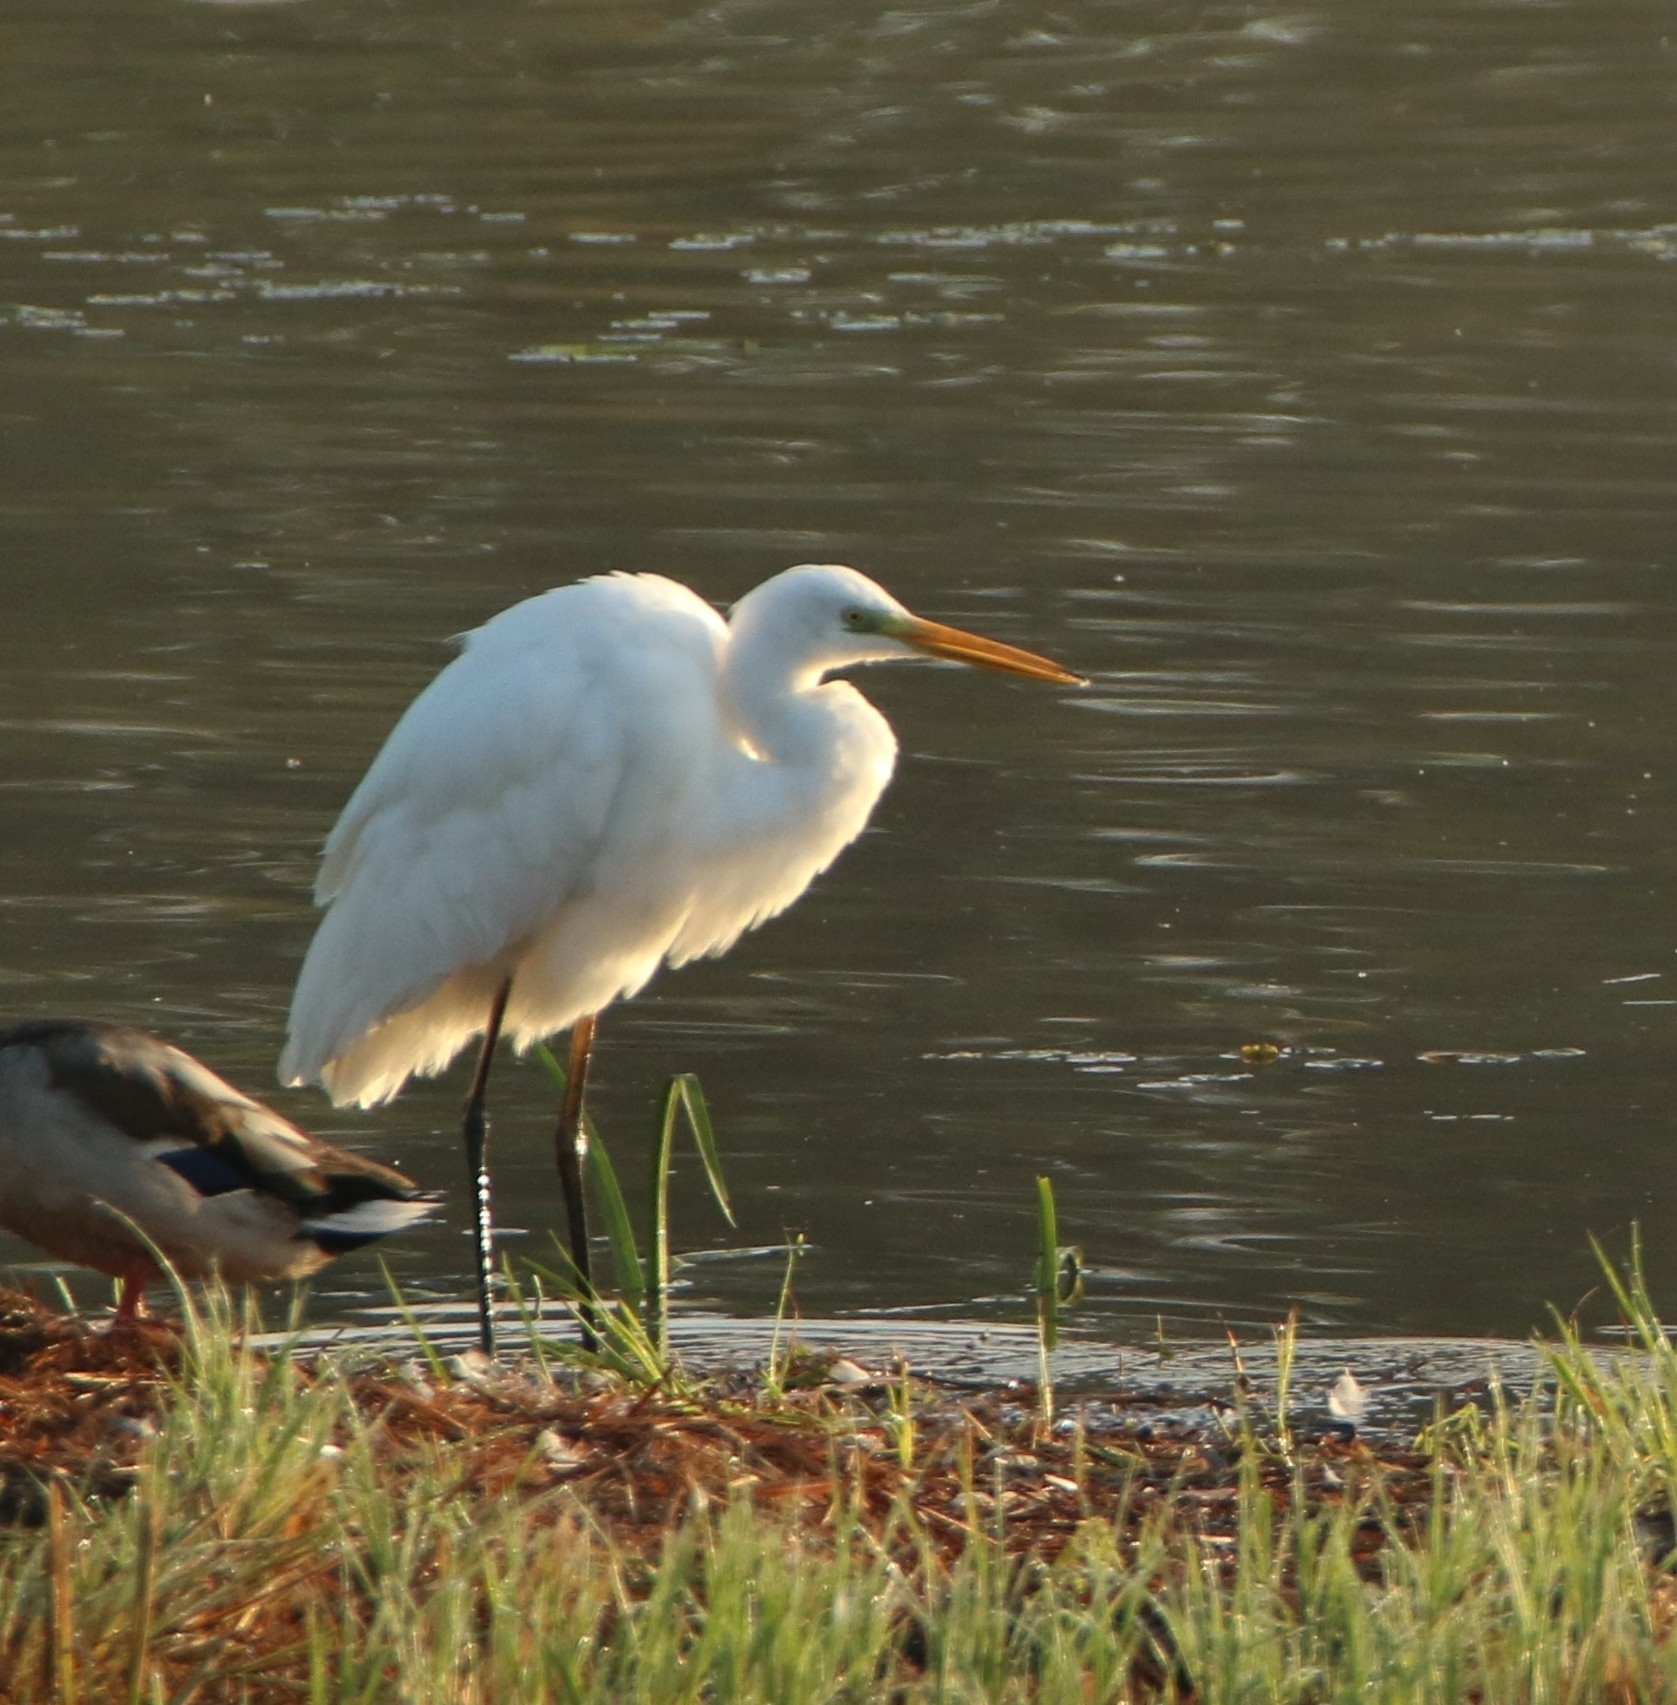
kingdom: Animalia
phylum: Chordata
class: Aves
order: Pelecaniformes
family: Ardeidae
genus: Ardea
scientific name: Ardea alba
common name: Great egret
